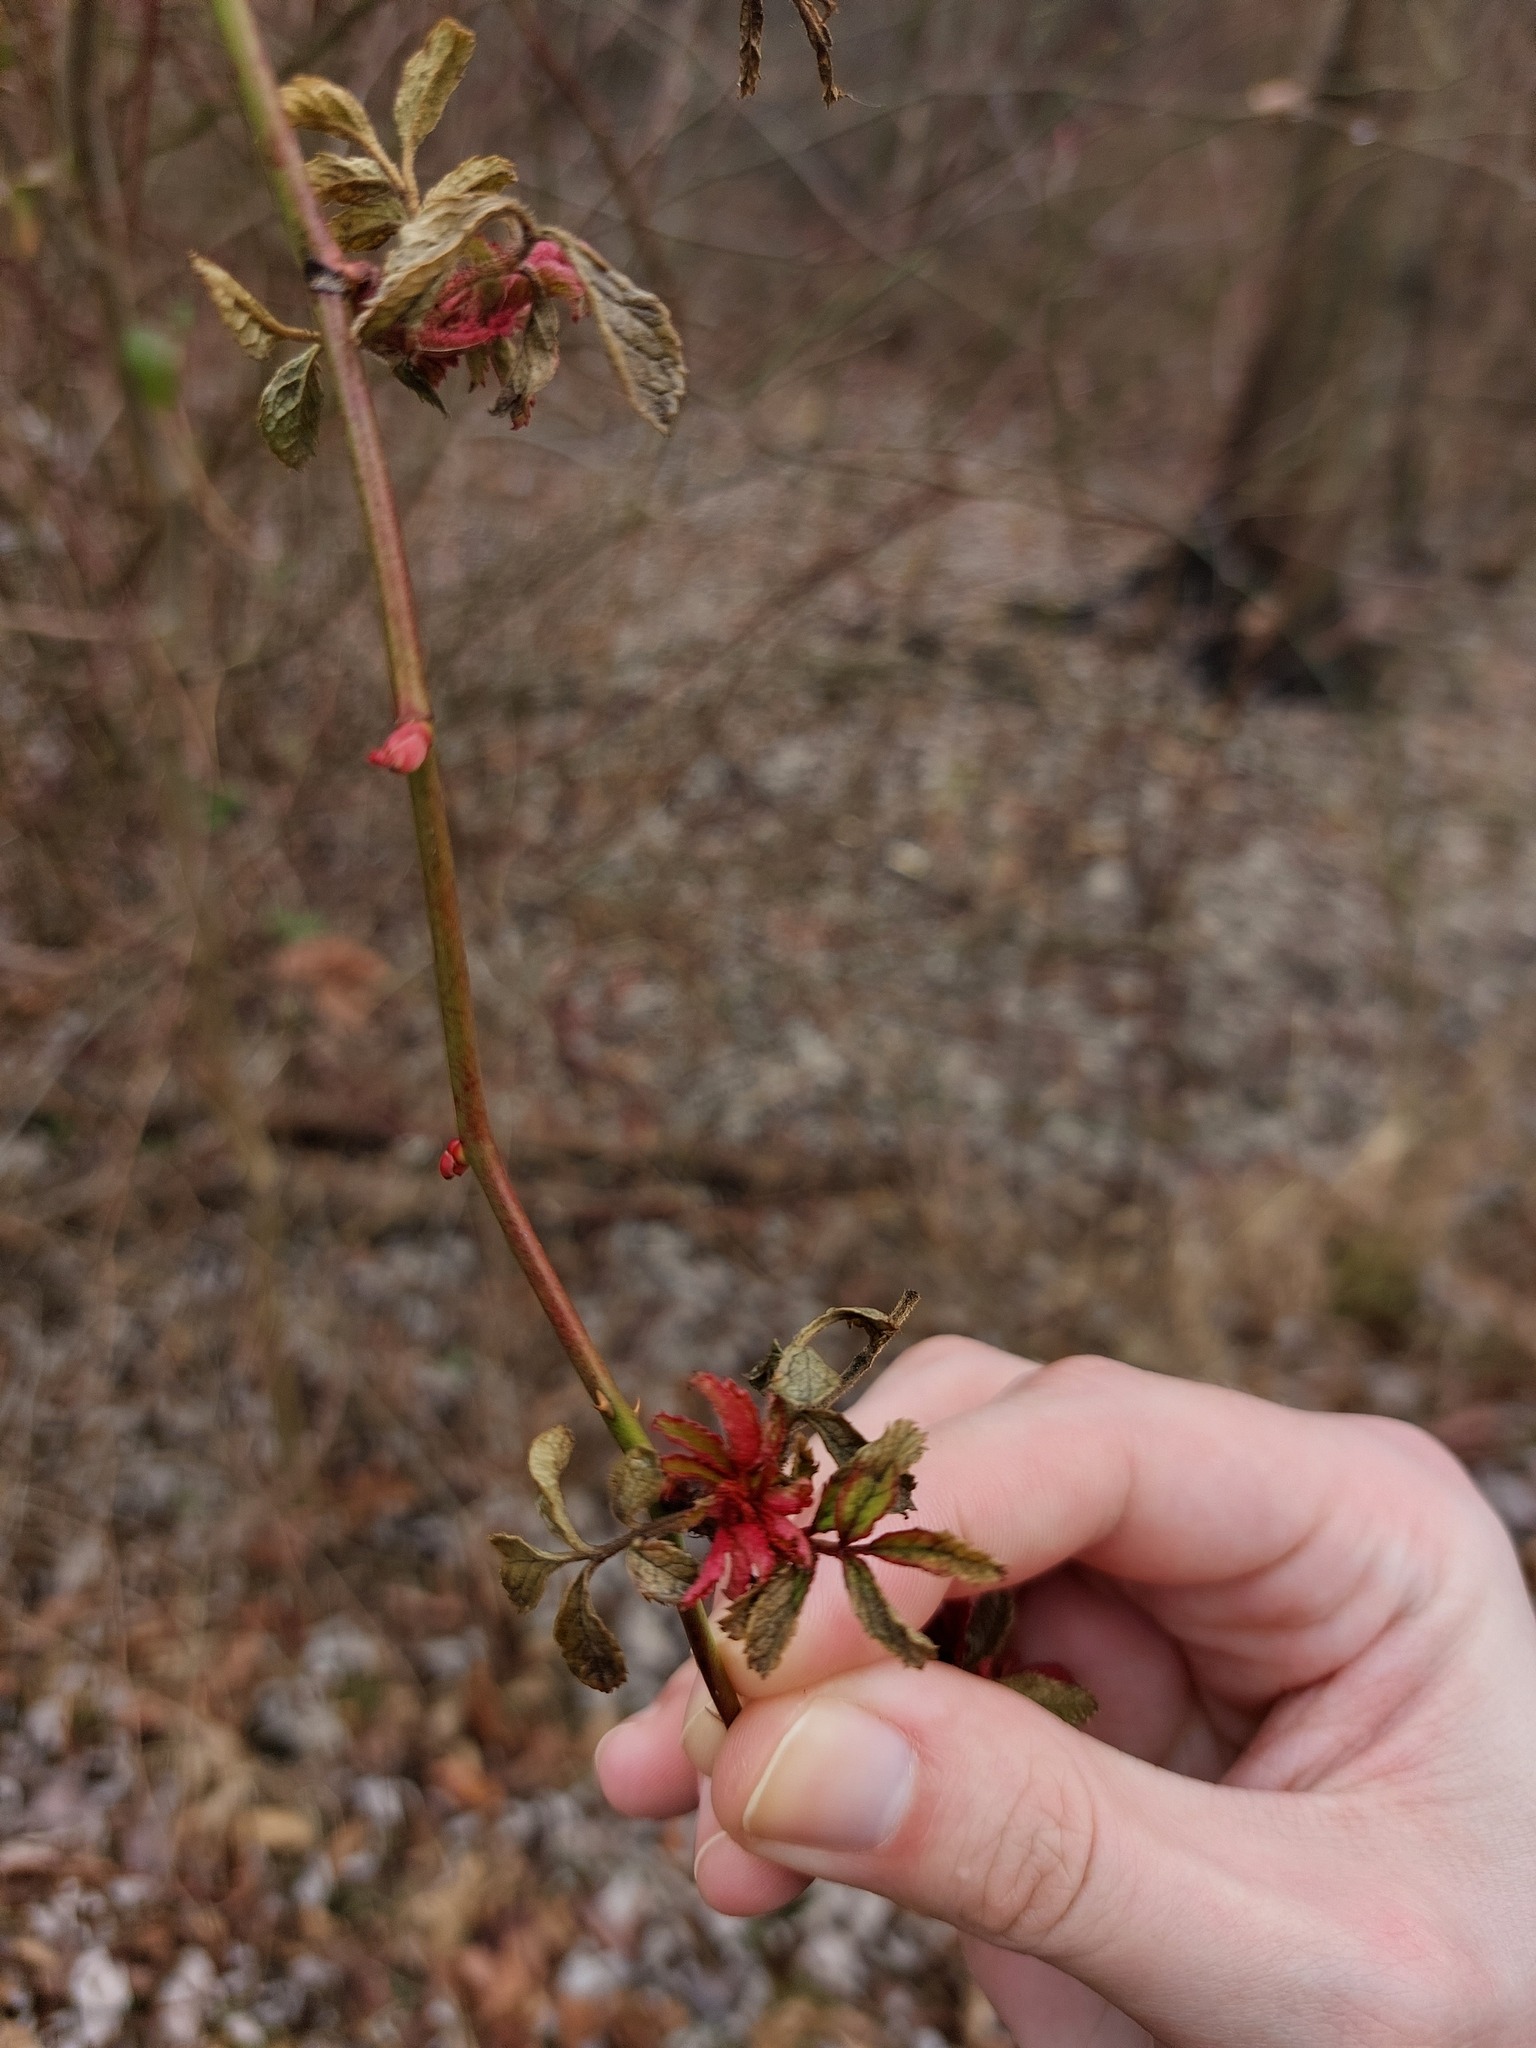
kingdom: Viruses
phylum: Negarnaviricota
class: Ellioviricetes
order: Bunyavirales
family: Fimoviridae
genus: Emaravirus
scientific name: Emaravirus rosae
